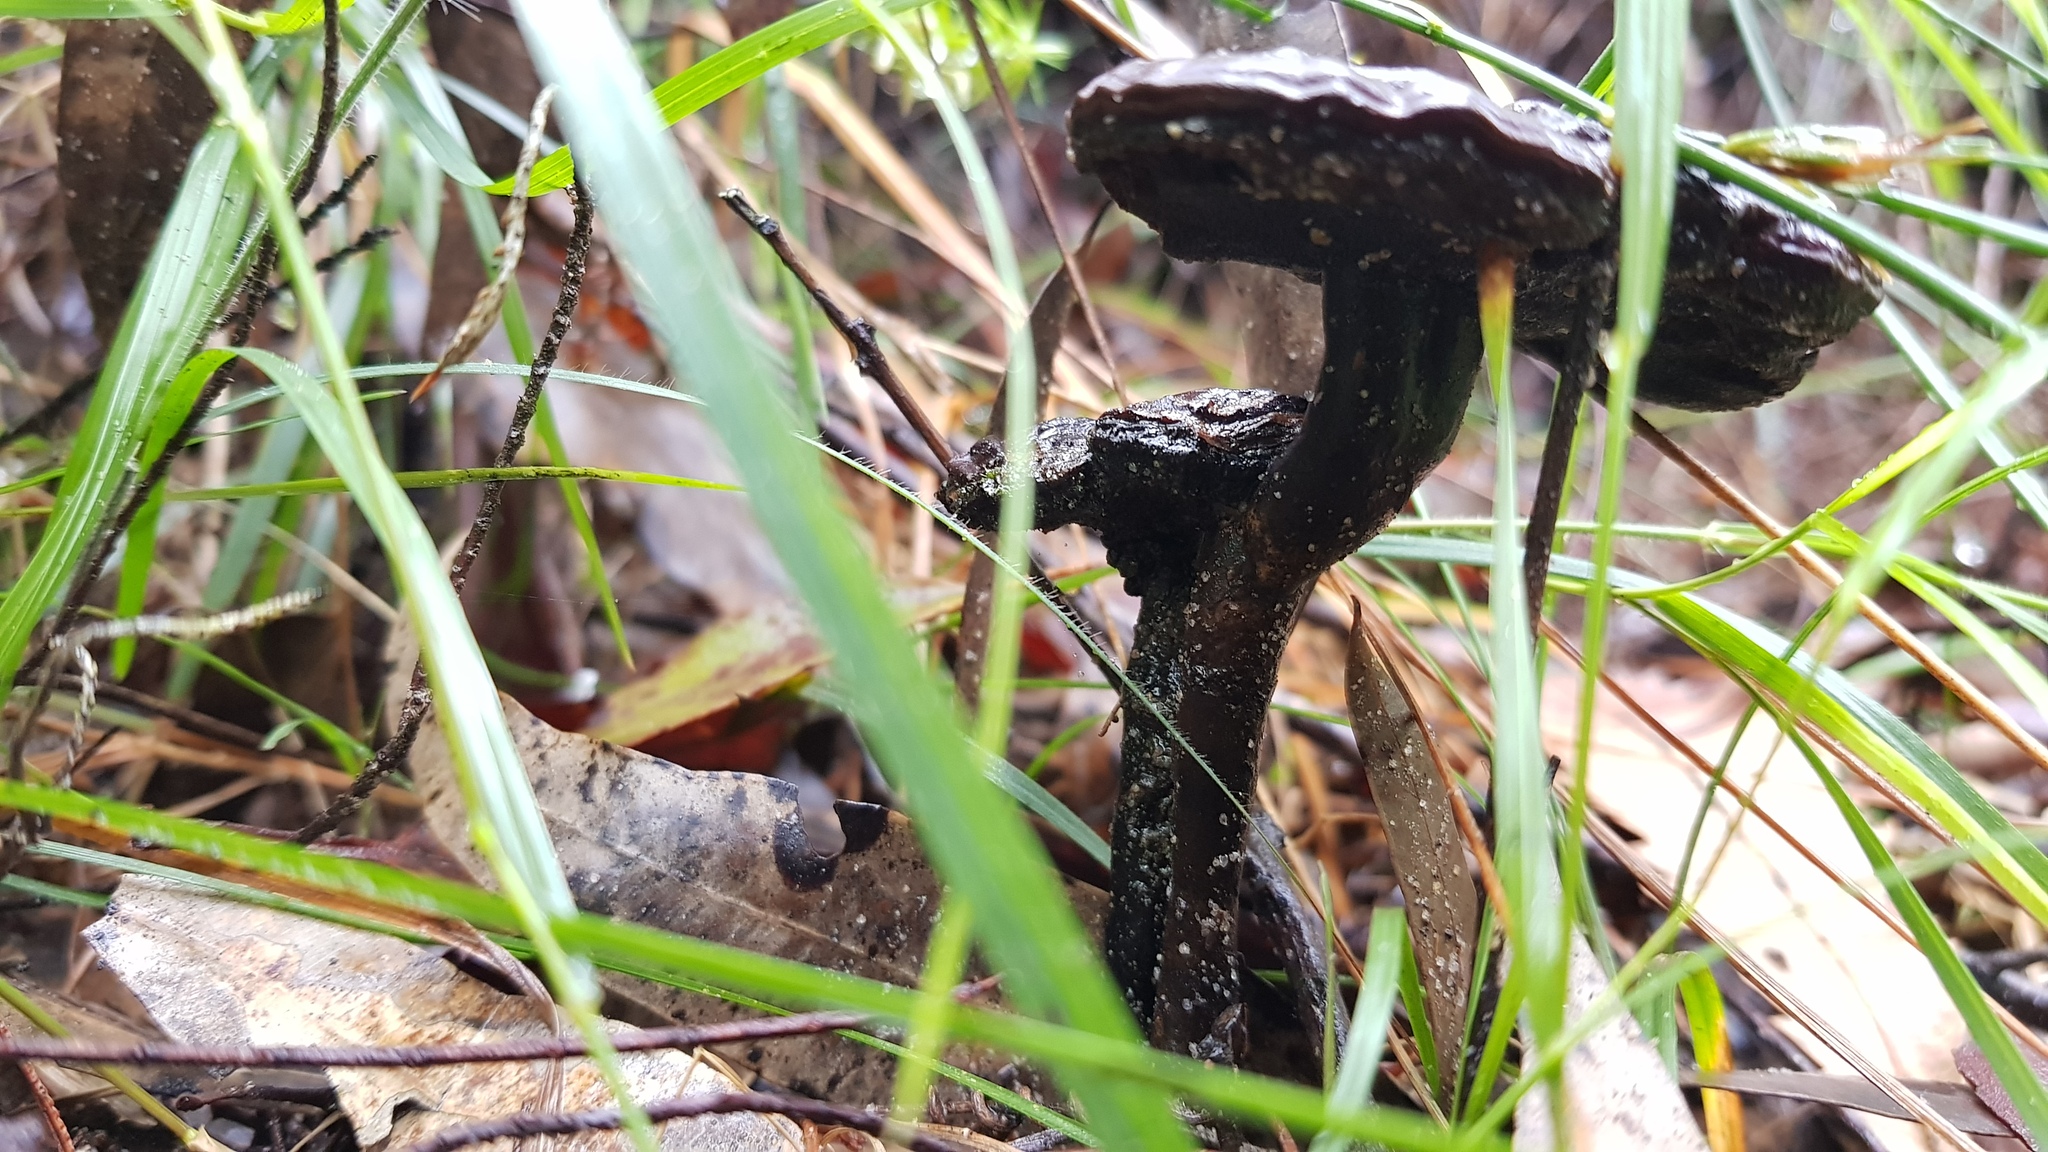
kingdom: Fungi
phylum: Basidiomycota
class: Agaricomycetes
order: Polyporales
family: Ganodermataceae
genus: Sanguinoderma
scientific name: Sanguinoderma rude
